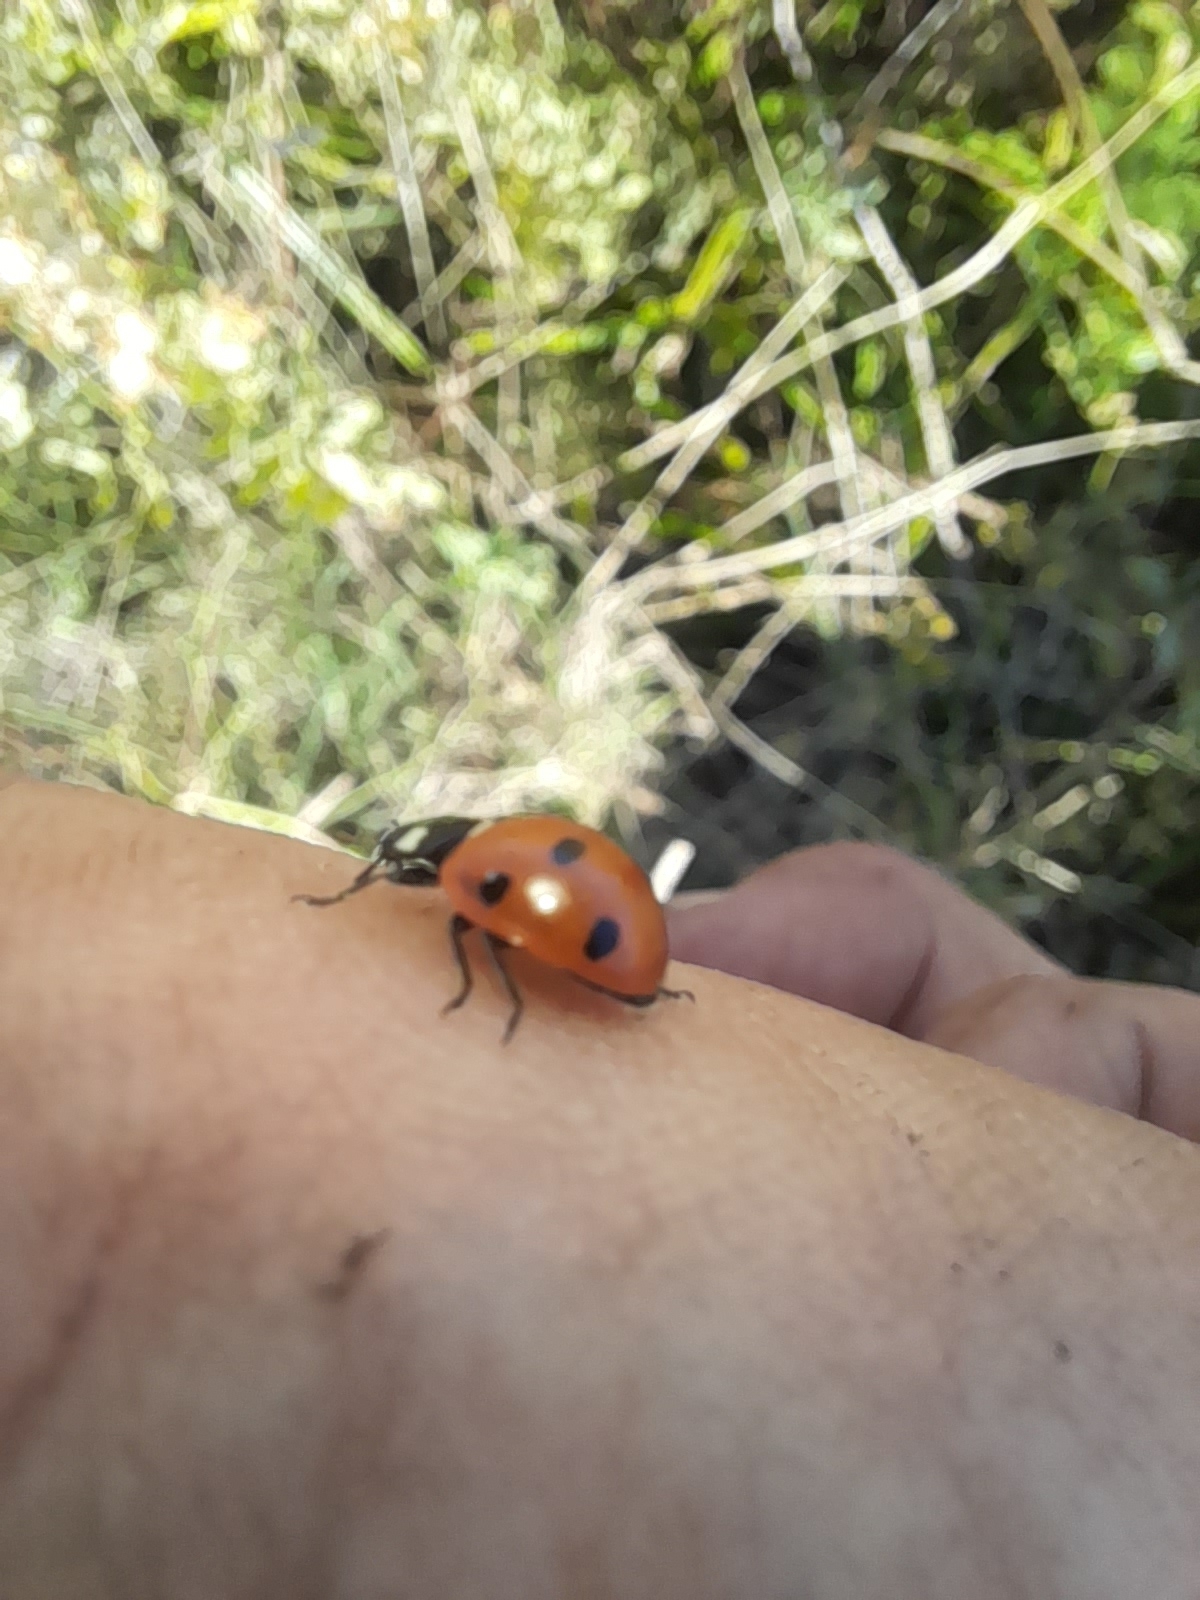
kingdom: Animalia
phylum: Arthropoda
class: Insecta
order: Coleoptera
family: Coccinellidae
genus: Coccinella
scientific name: Coccinella septempunctata
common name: Sevenspotted lady beetle
